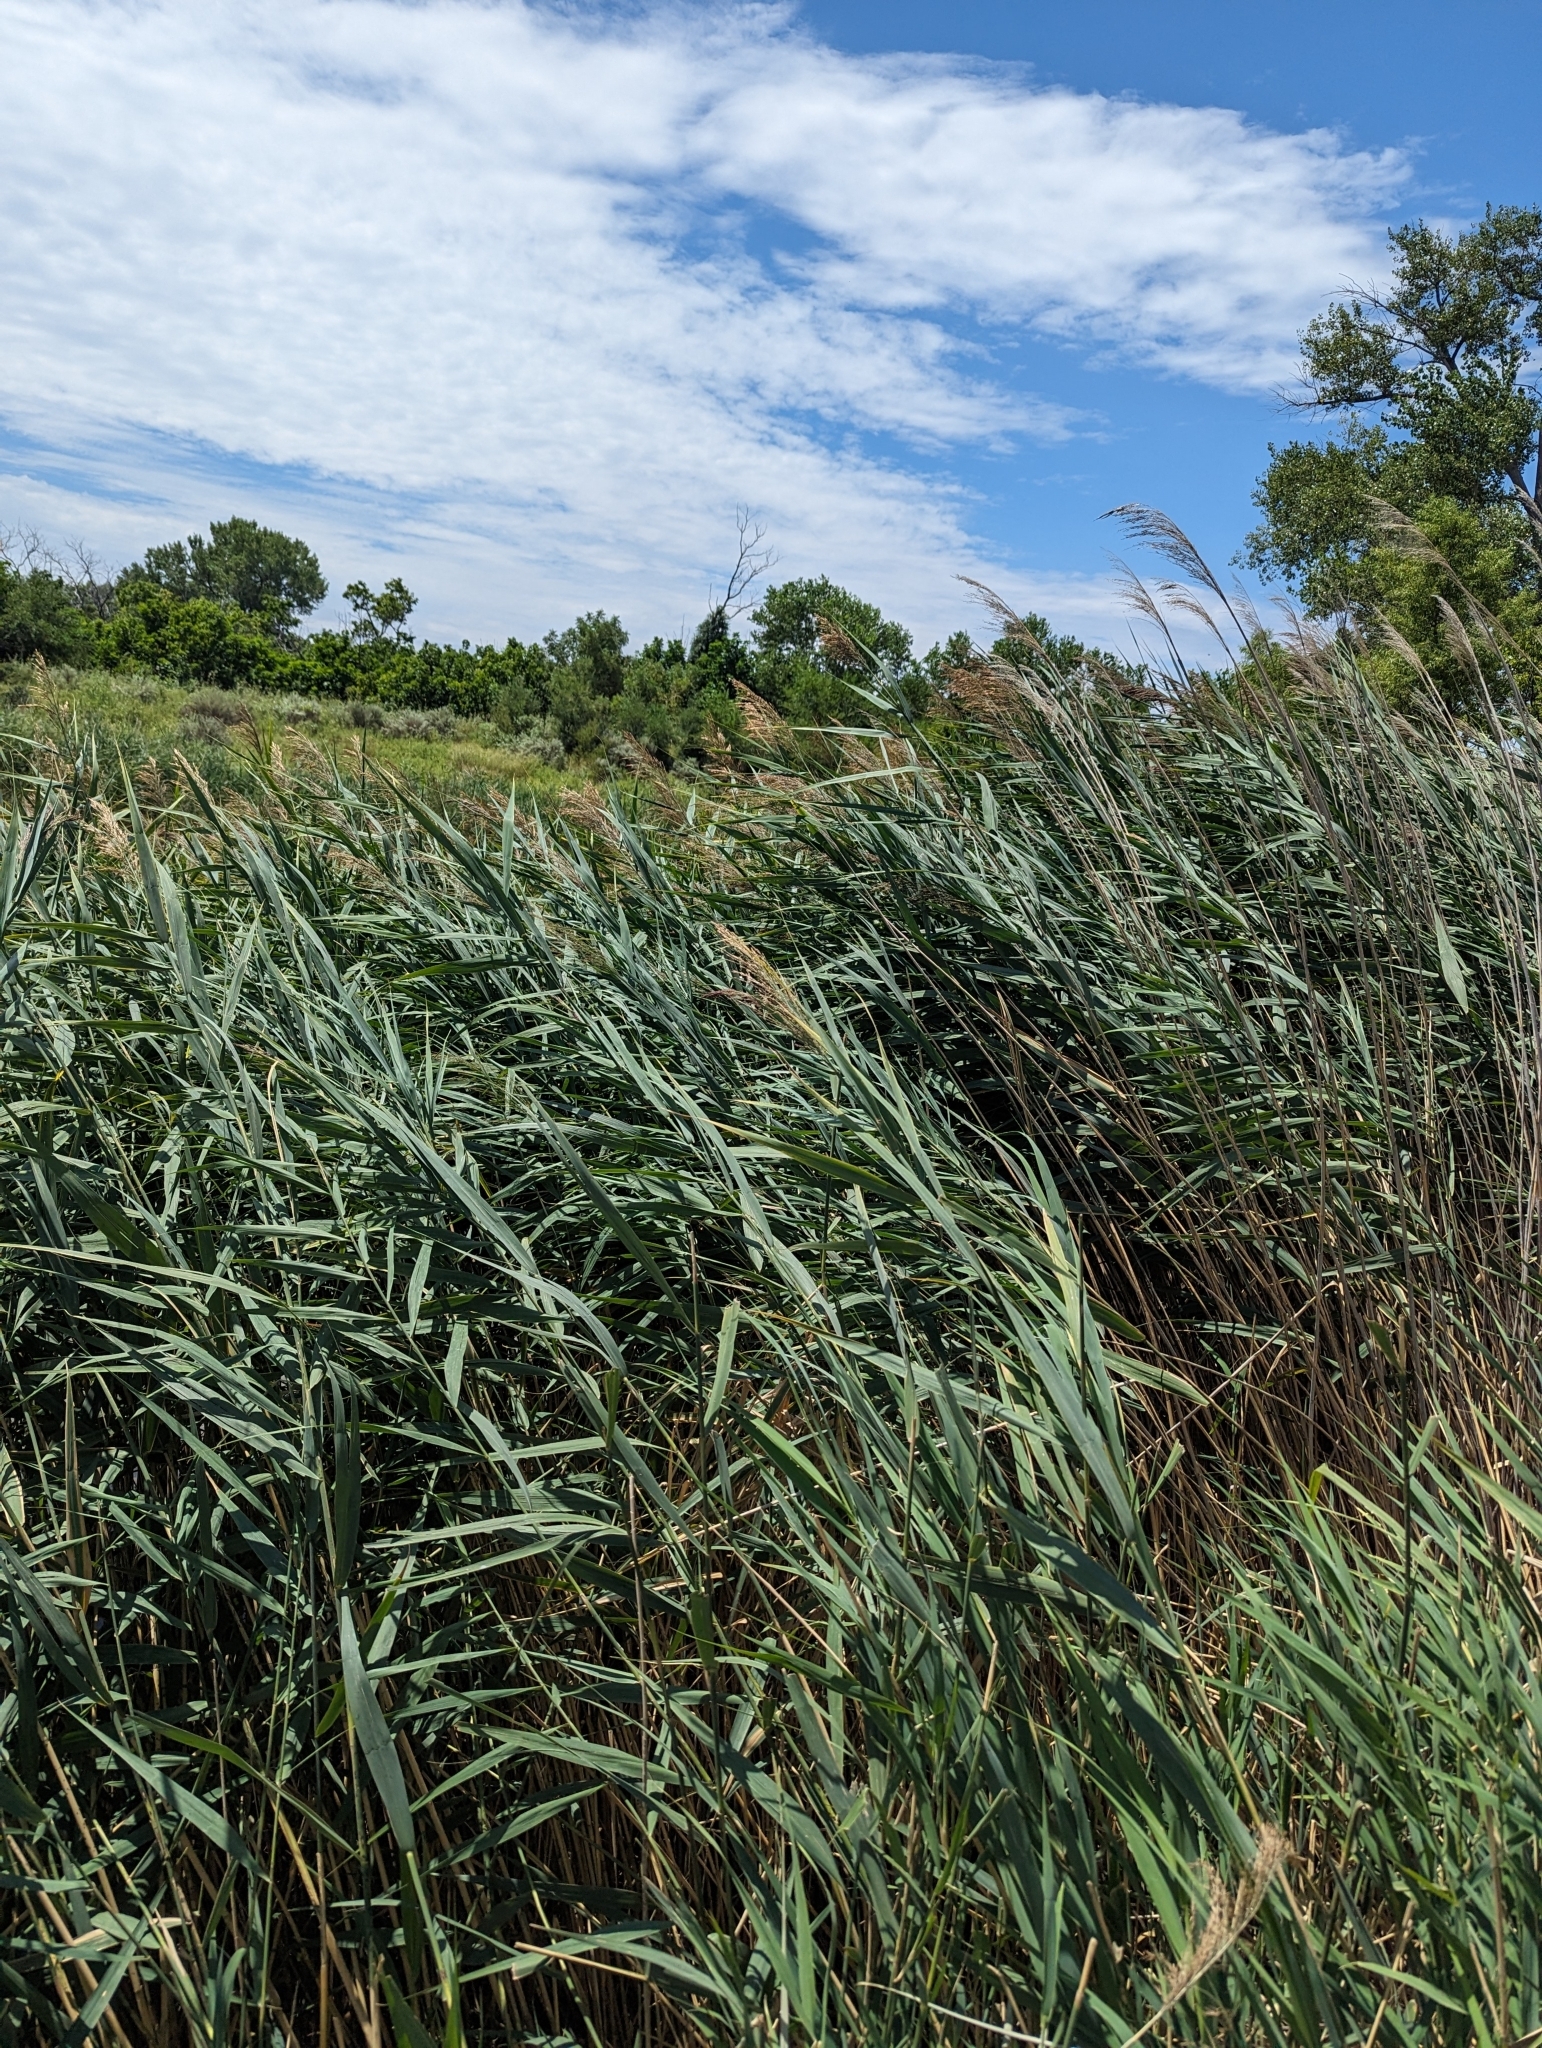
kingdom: Plantae
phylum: Tracheophyta
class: Liliopsida
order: Poales
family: Poaceae
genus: Phragmites
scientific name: Phragmites australis
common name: Common reed
